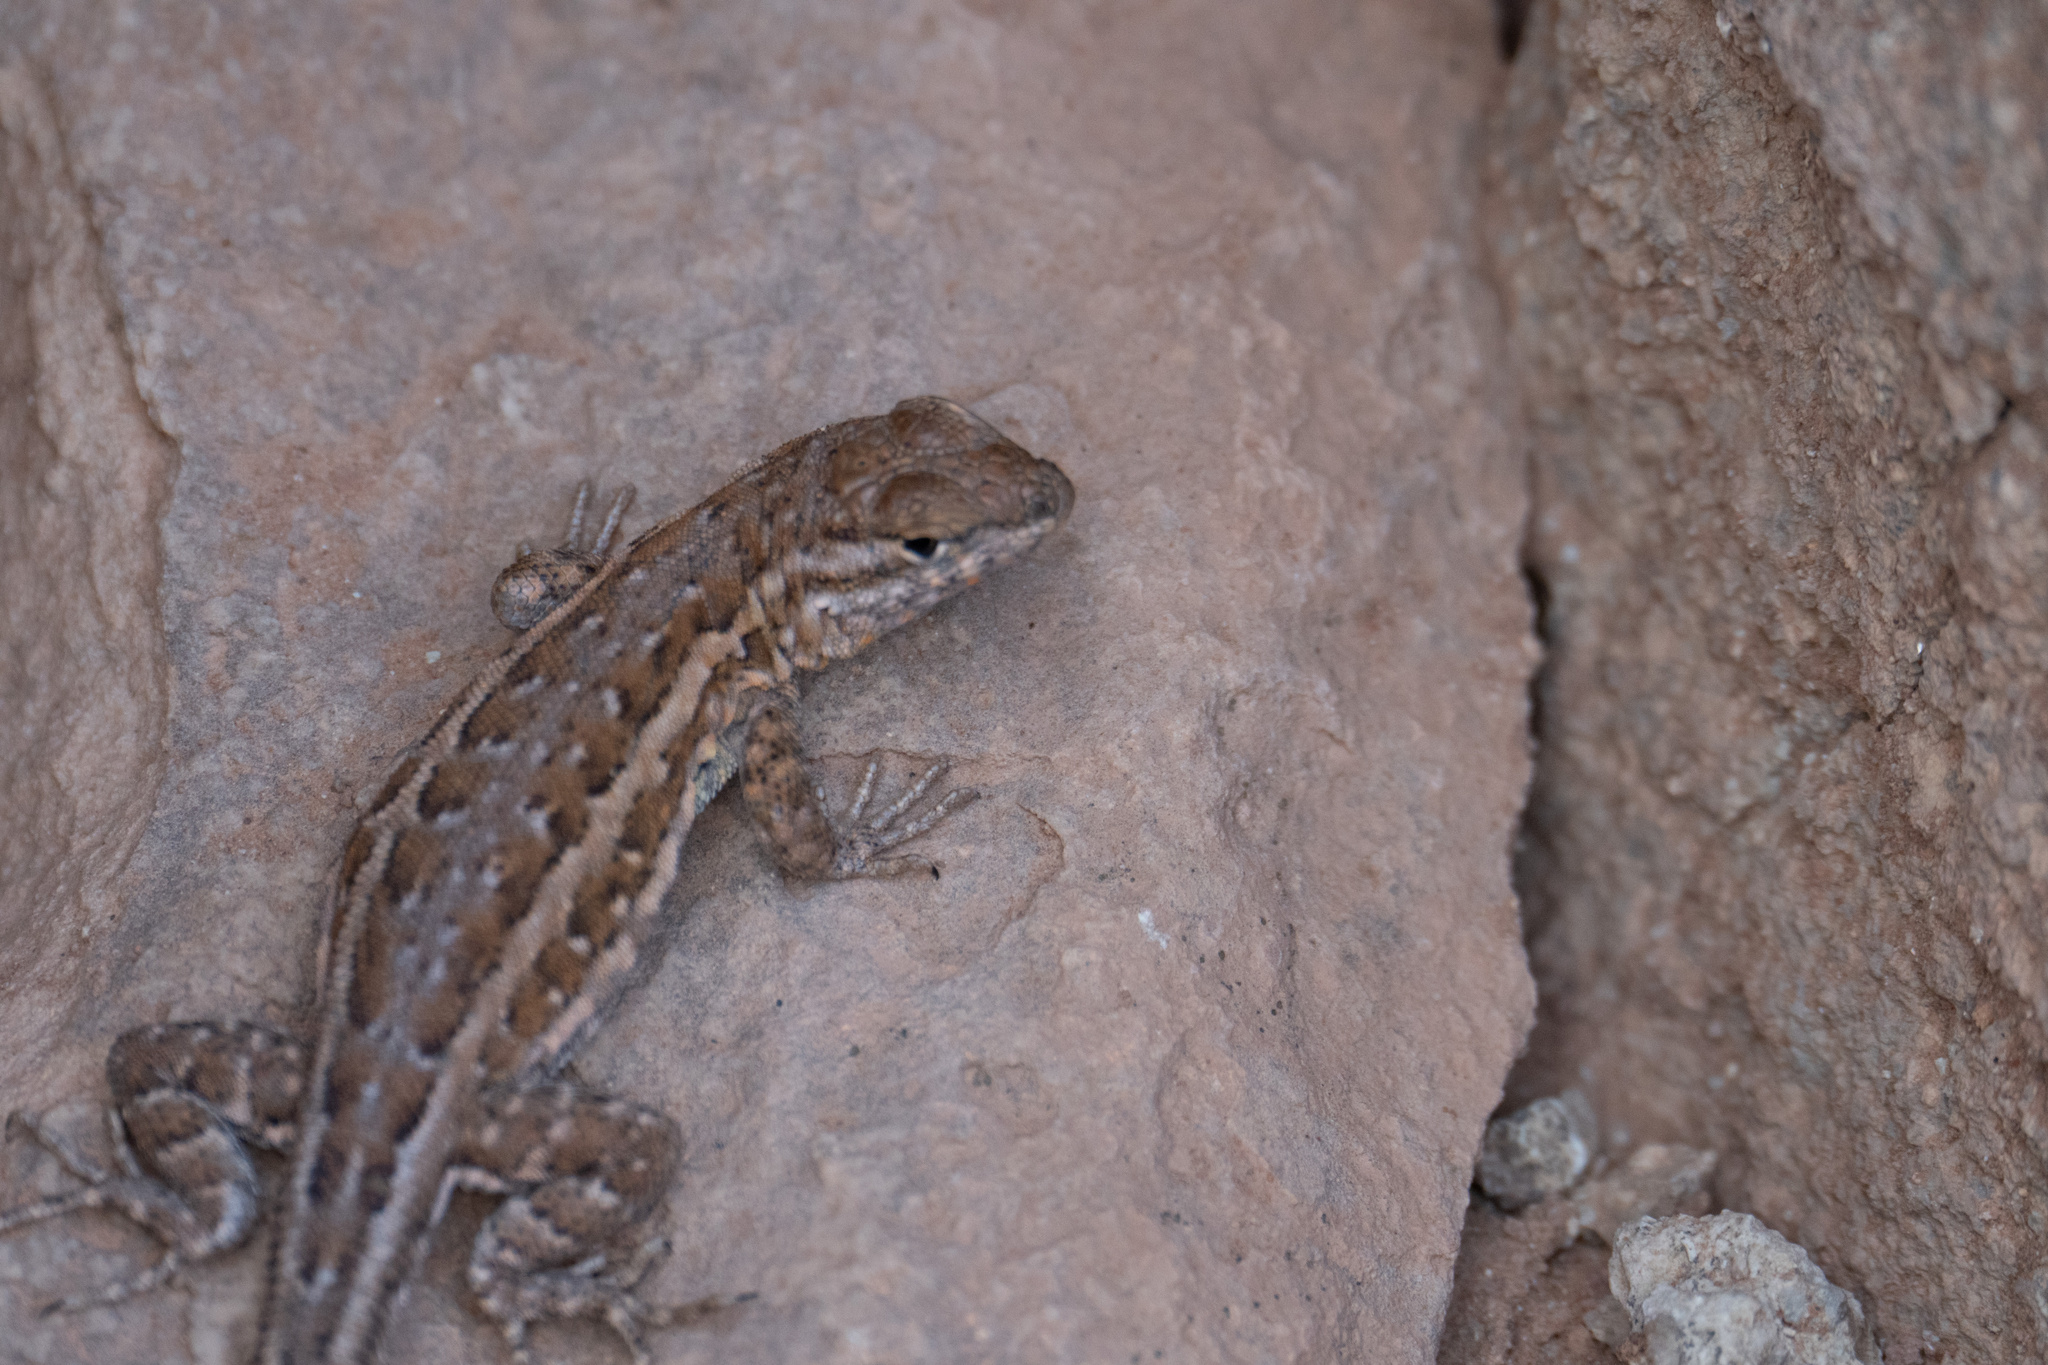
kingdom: Animalia
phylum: Chordata
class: Squamata
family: Phrynosomatidae
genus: Sceloporus
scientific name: Sceloporus consobrinus
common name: Southern prairie lizard
